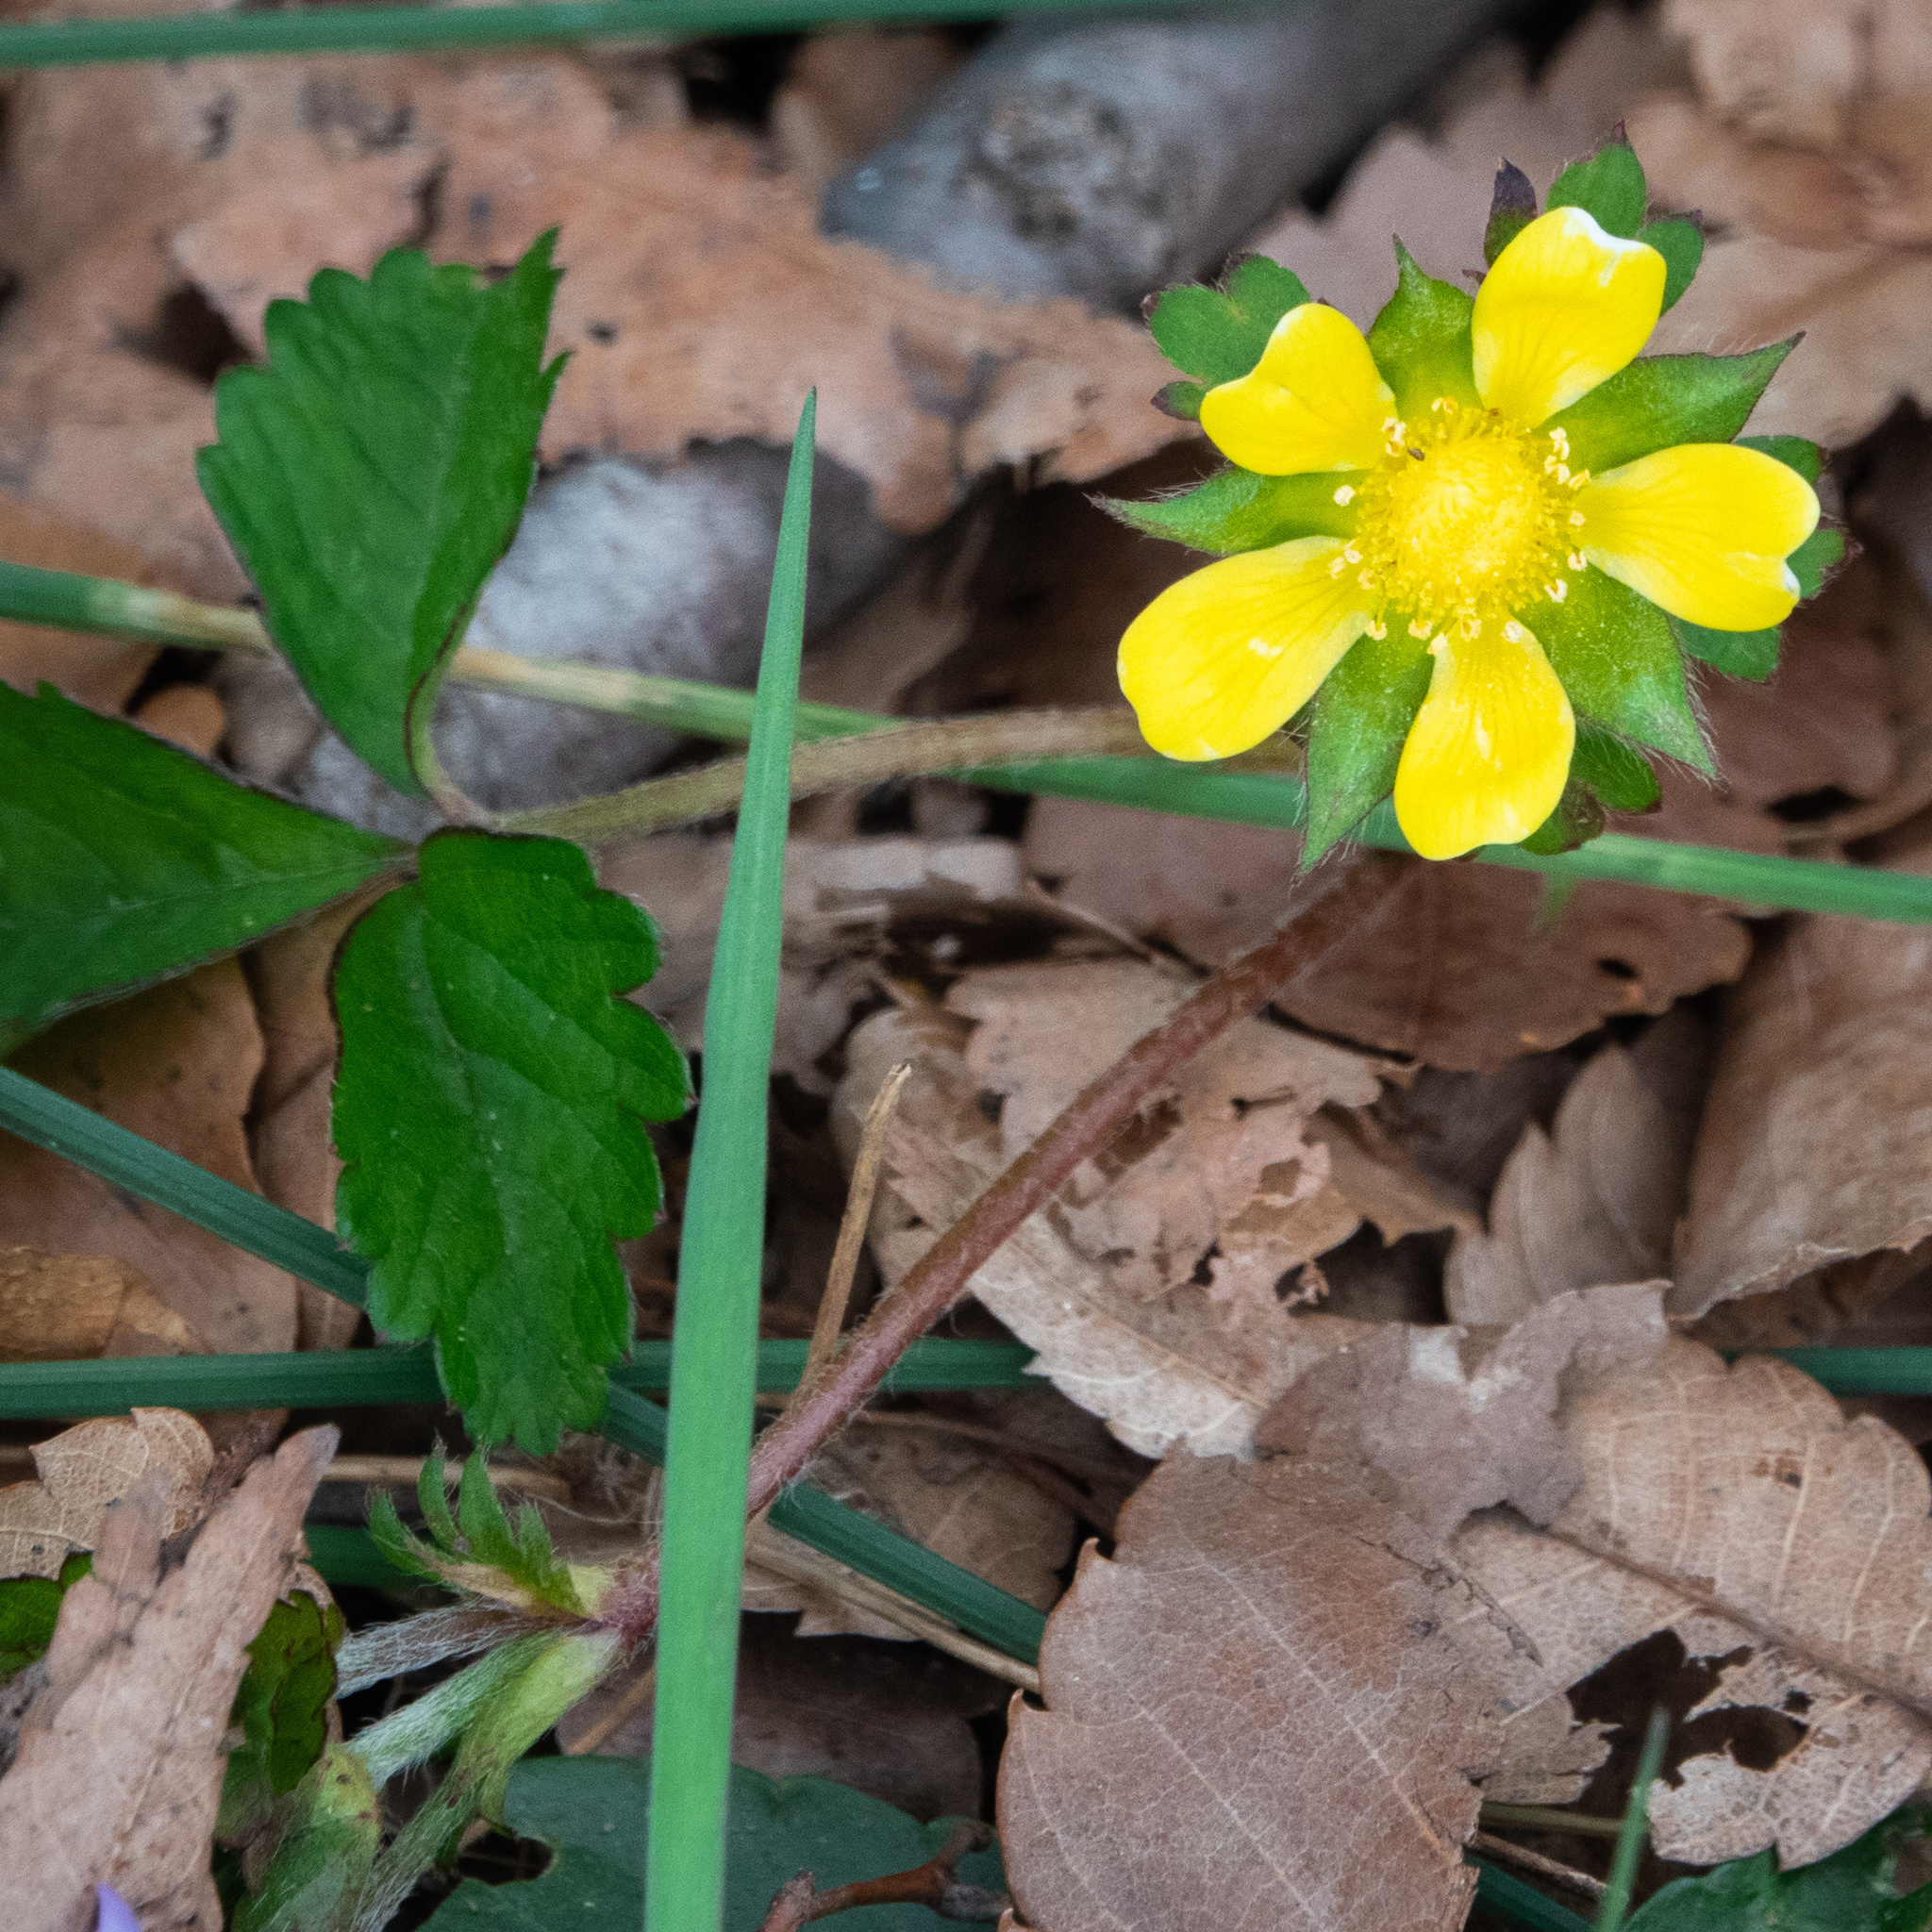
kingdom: Plantae
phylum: Tracheophyta
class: Magnoliopsida
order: Rosales
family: Rosaceae
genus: Potentilla
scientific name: Potentilla indica
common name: Yellow-flowered strawberry
